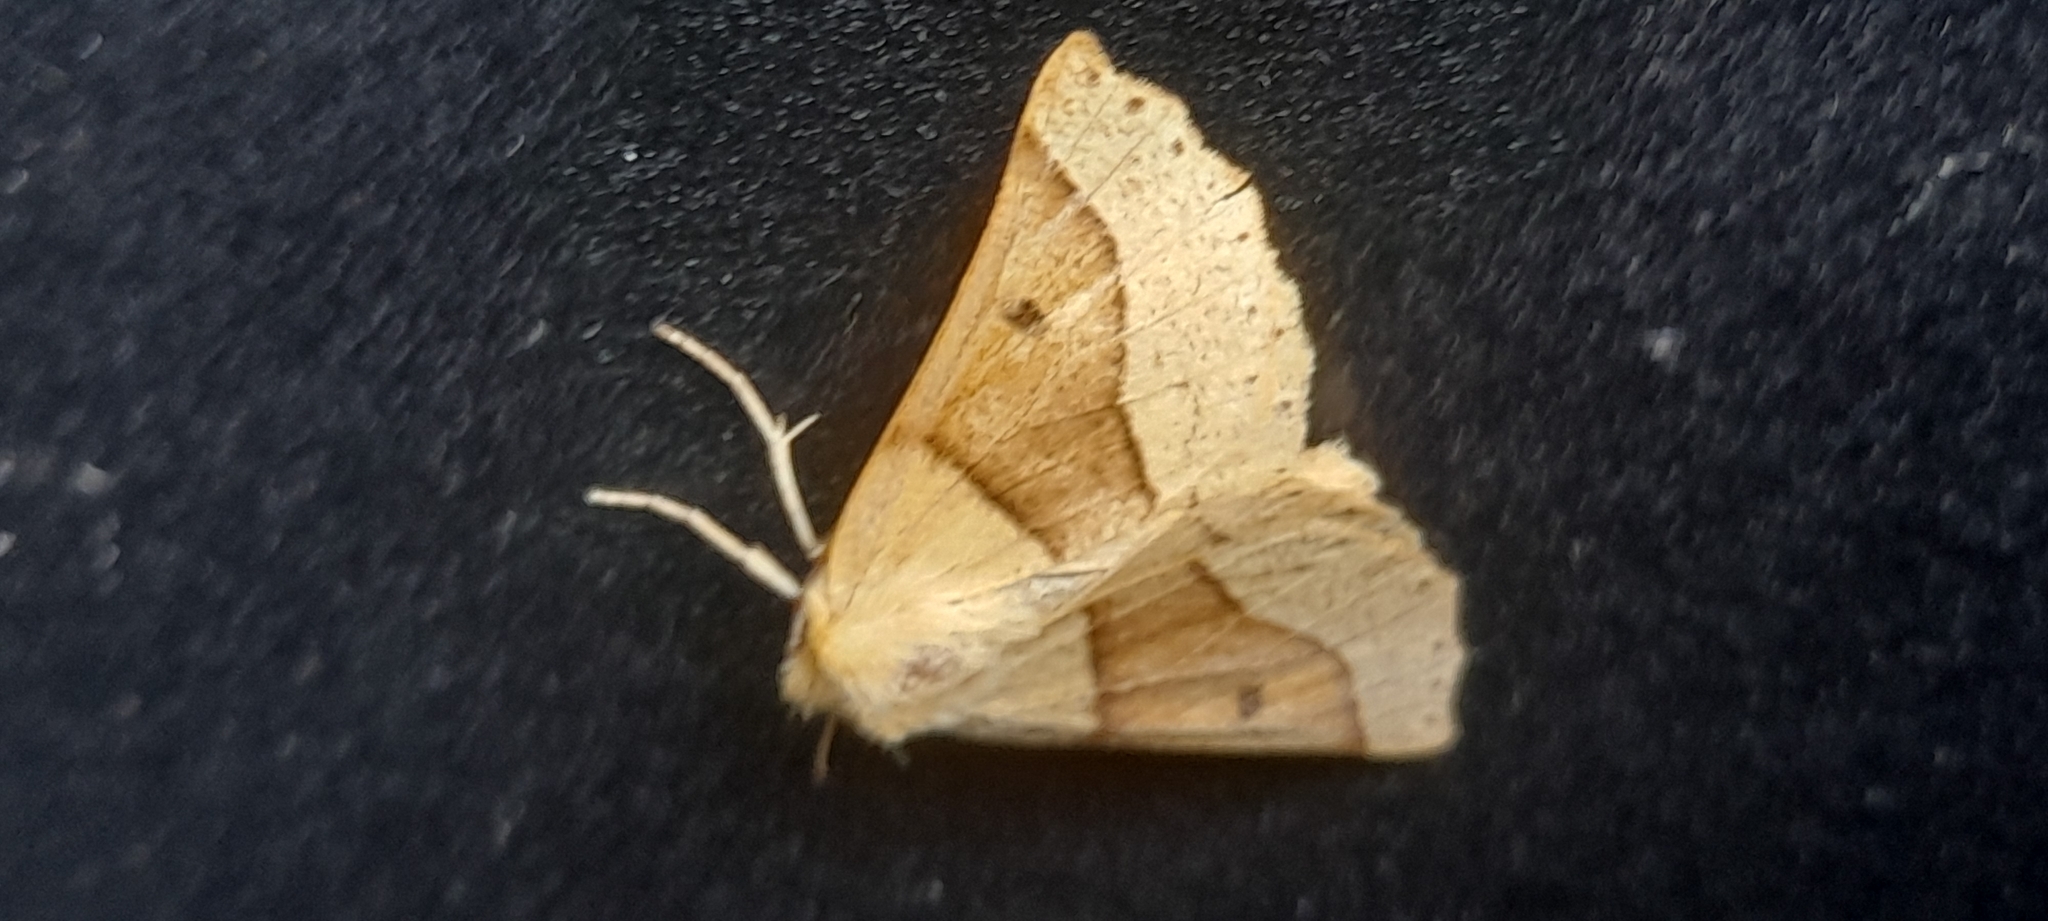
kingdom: Animalia
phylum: Arthropoda
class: Insecta
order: Lepidoptera
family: Geometridae
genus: Crocallis
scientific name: Crocallis elinguaria
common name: Scalloped oak
